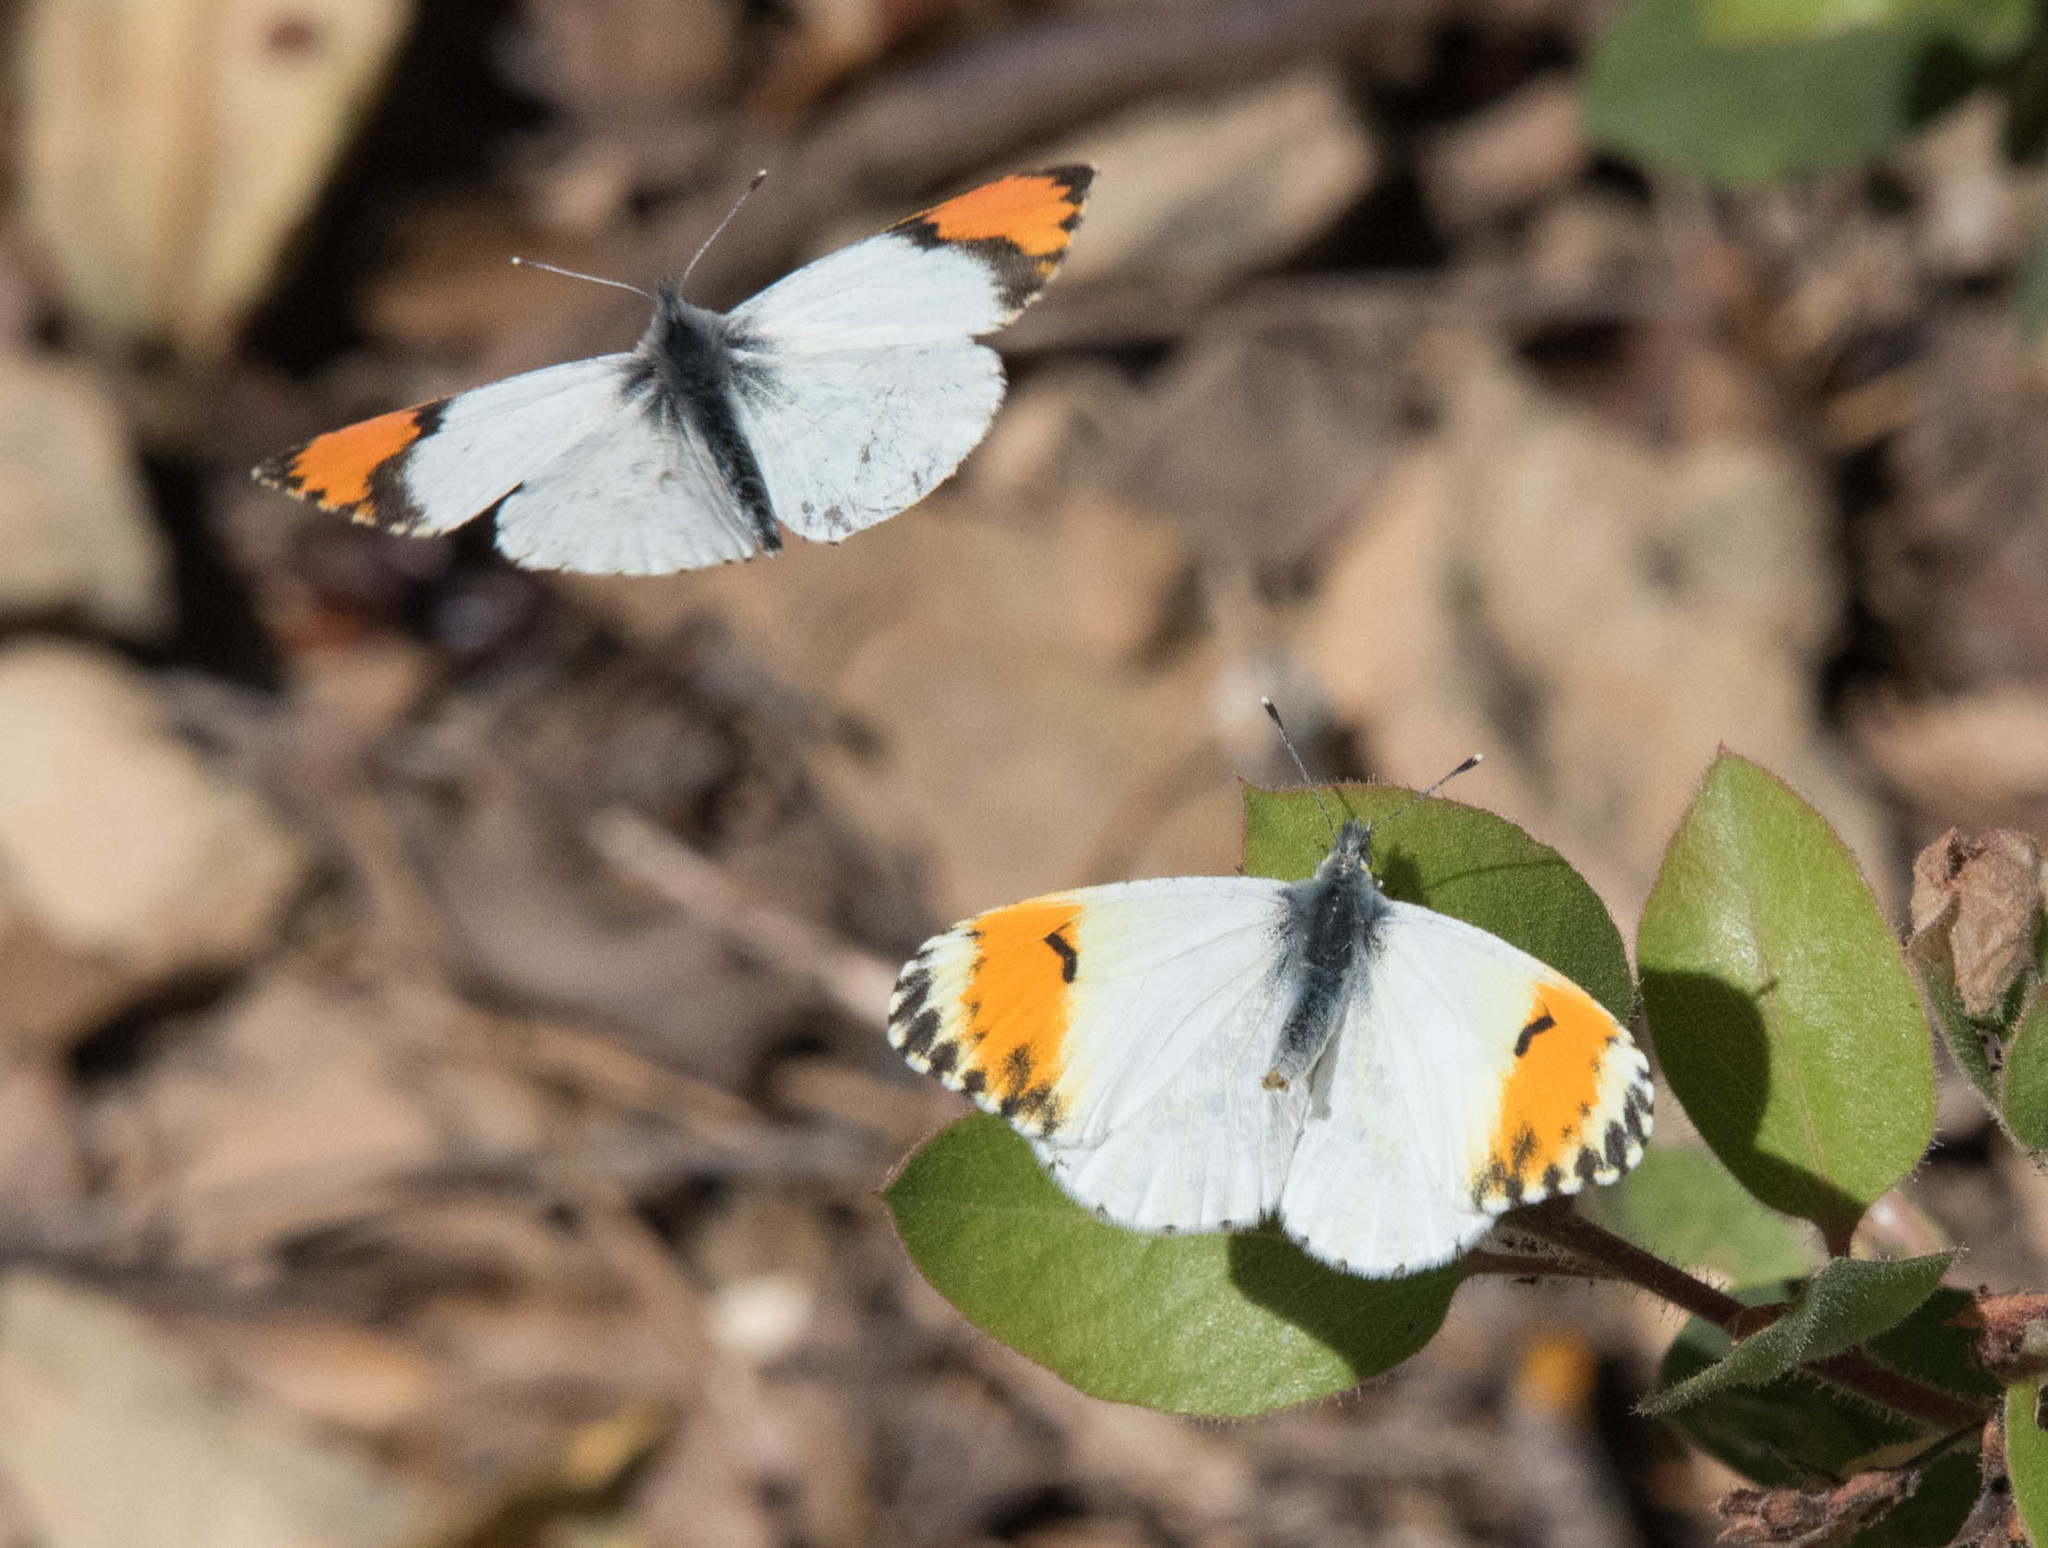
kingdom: Animalia
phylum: Arthropoda
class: Insecta
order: Lepidoptera
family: Pieridae
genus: Anthocharis
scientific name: Anthocharis sara
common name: Sara's orangetip
